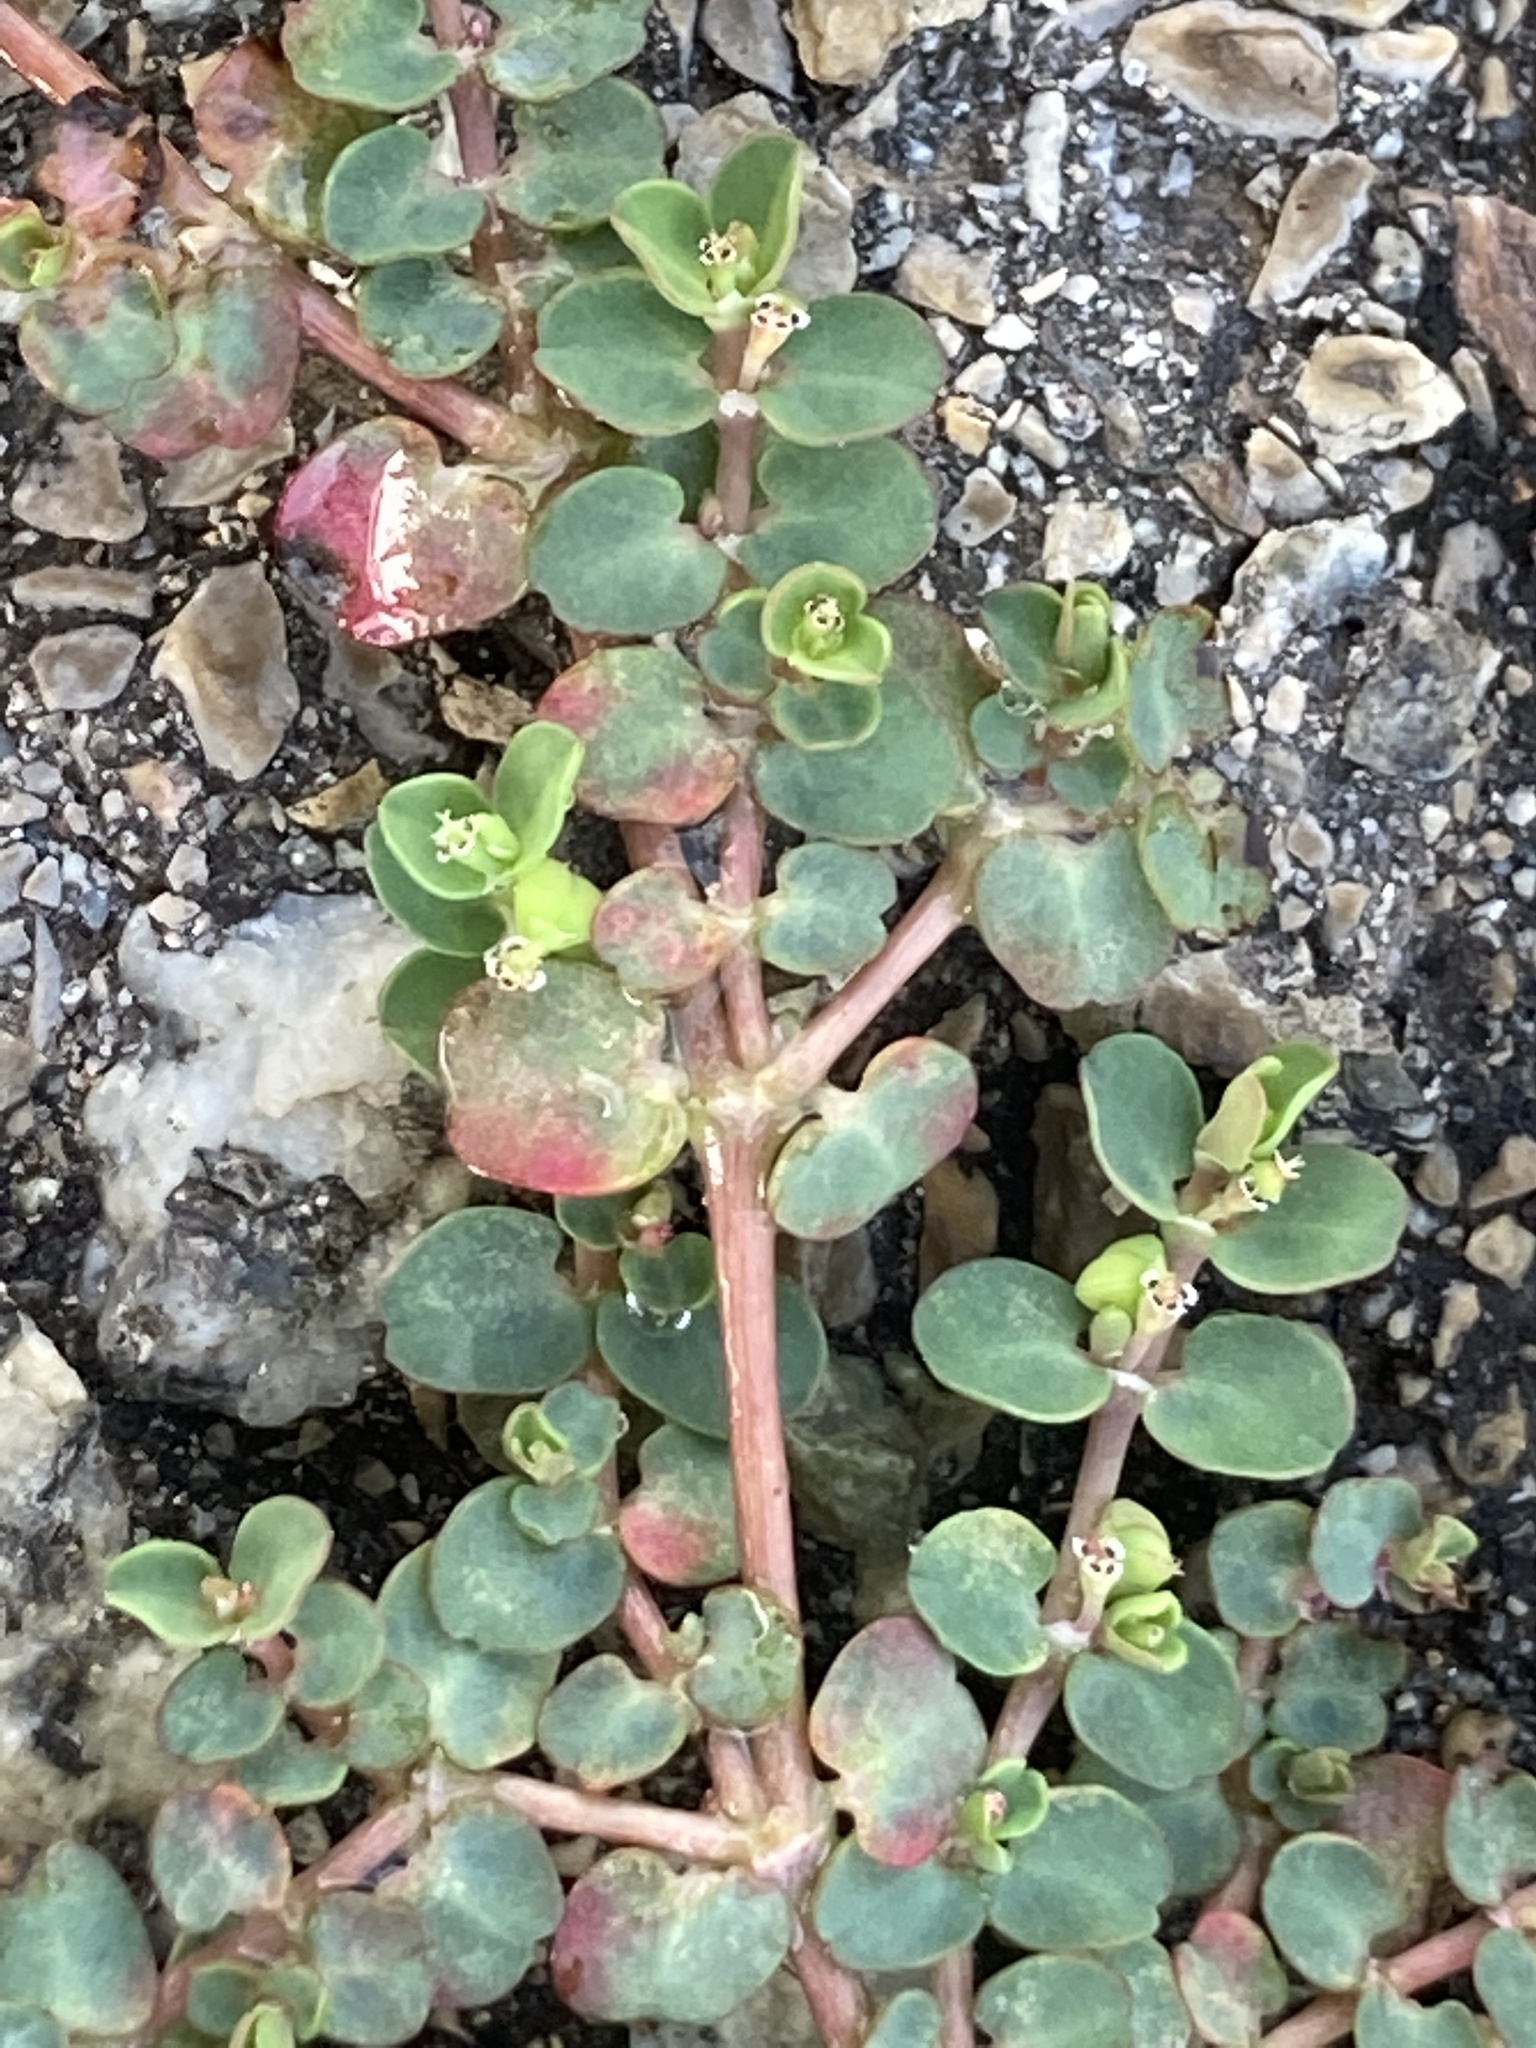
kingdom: Plantae
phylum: Tracheophyta
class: Magnoliopsida
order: Malpighiales
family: Euphorbiaceae
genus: Euphorbia
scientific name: Euphorbia serpens
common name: Matted sandmat
